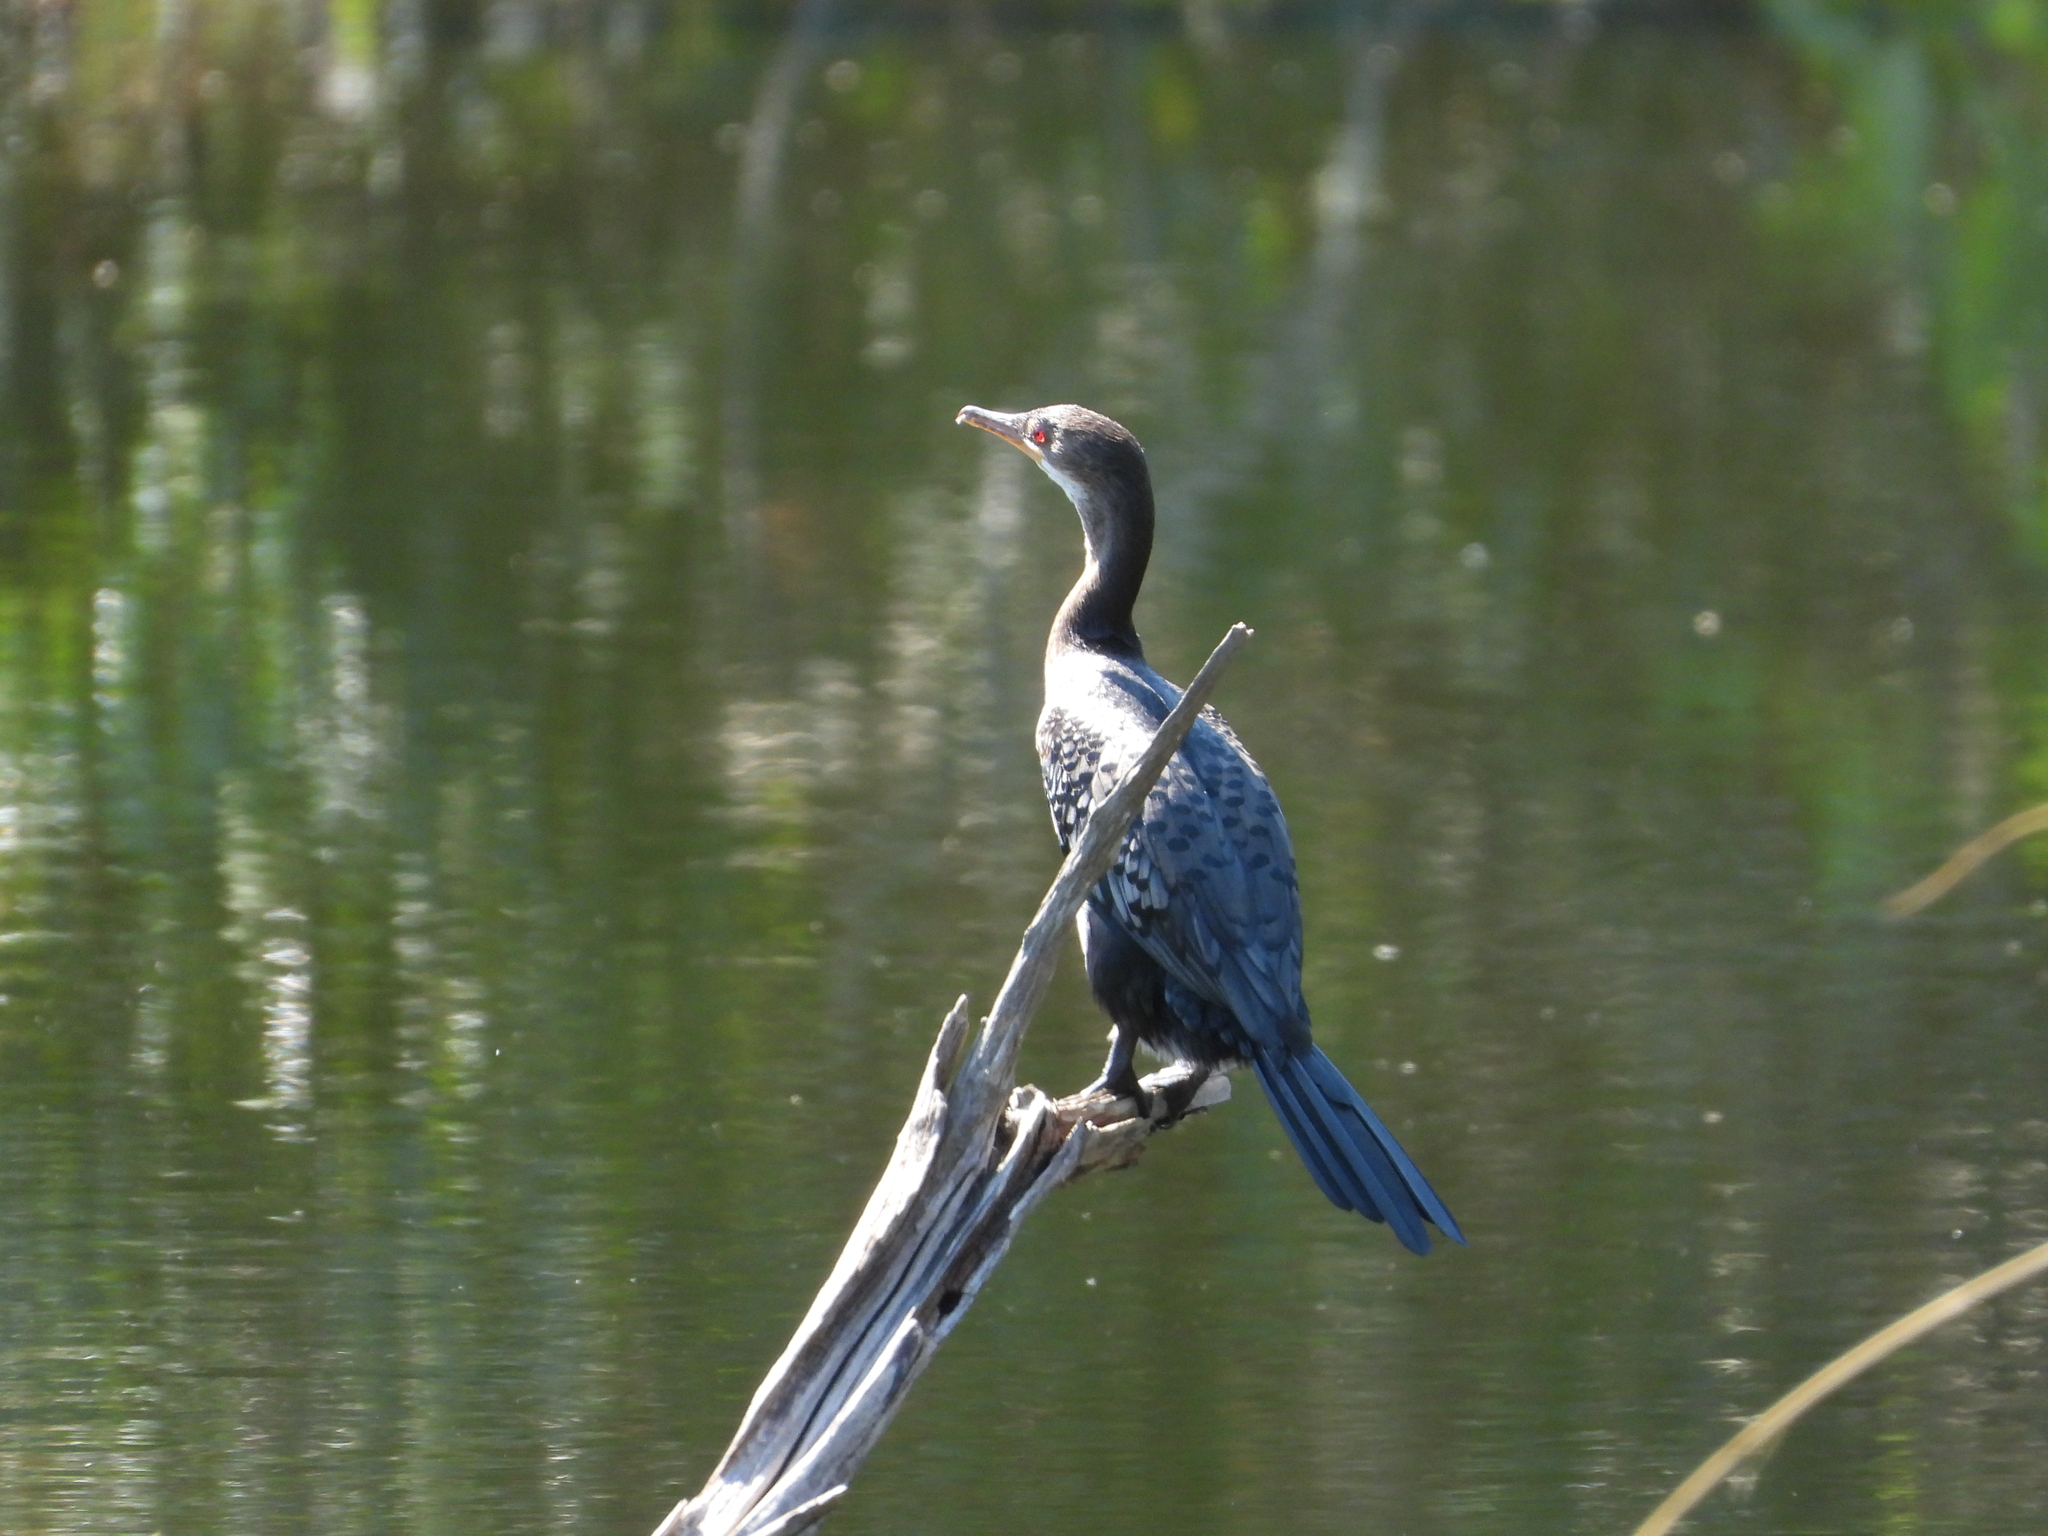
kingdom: Animalia
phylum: Chordata
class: Aves
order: Suliformes
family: Phalacrocoracidae
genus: Microcarbo
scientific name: Microcarbo africanus
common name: Long-tailed cormorant
